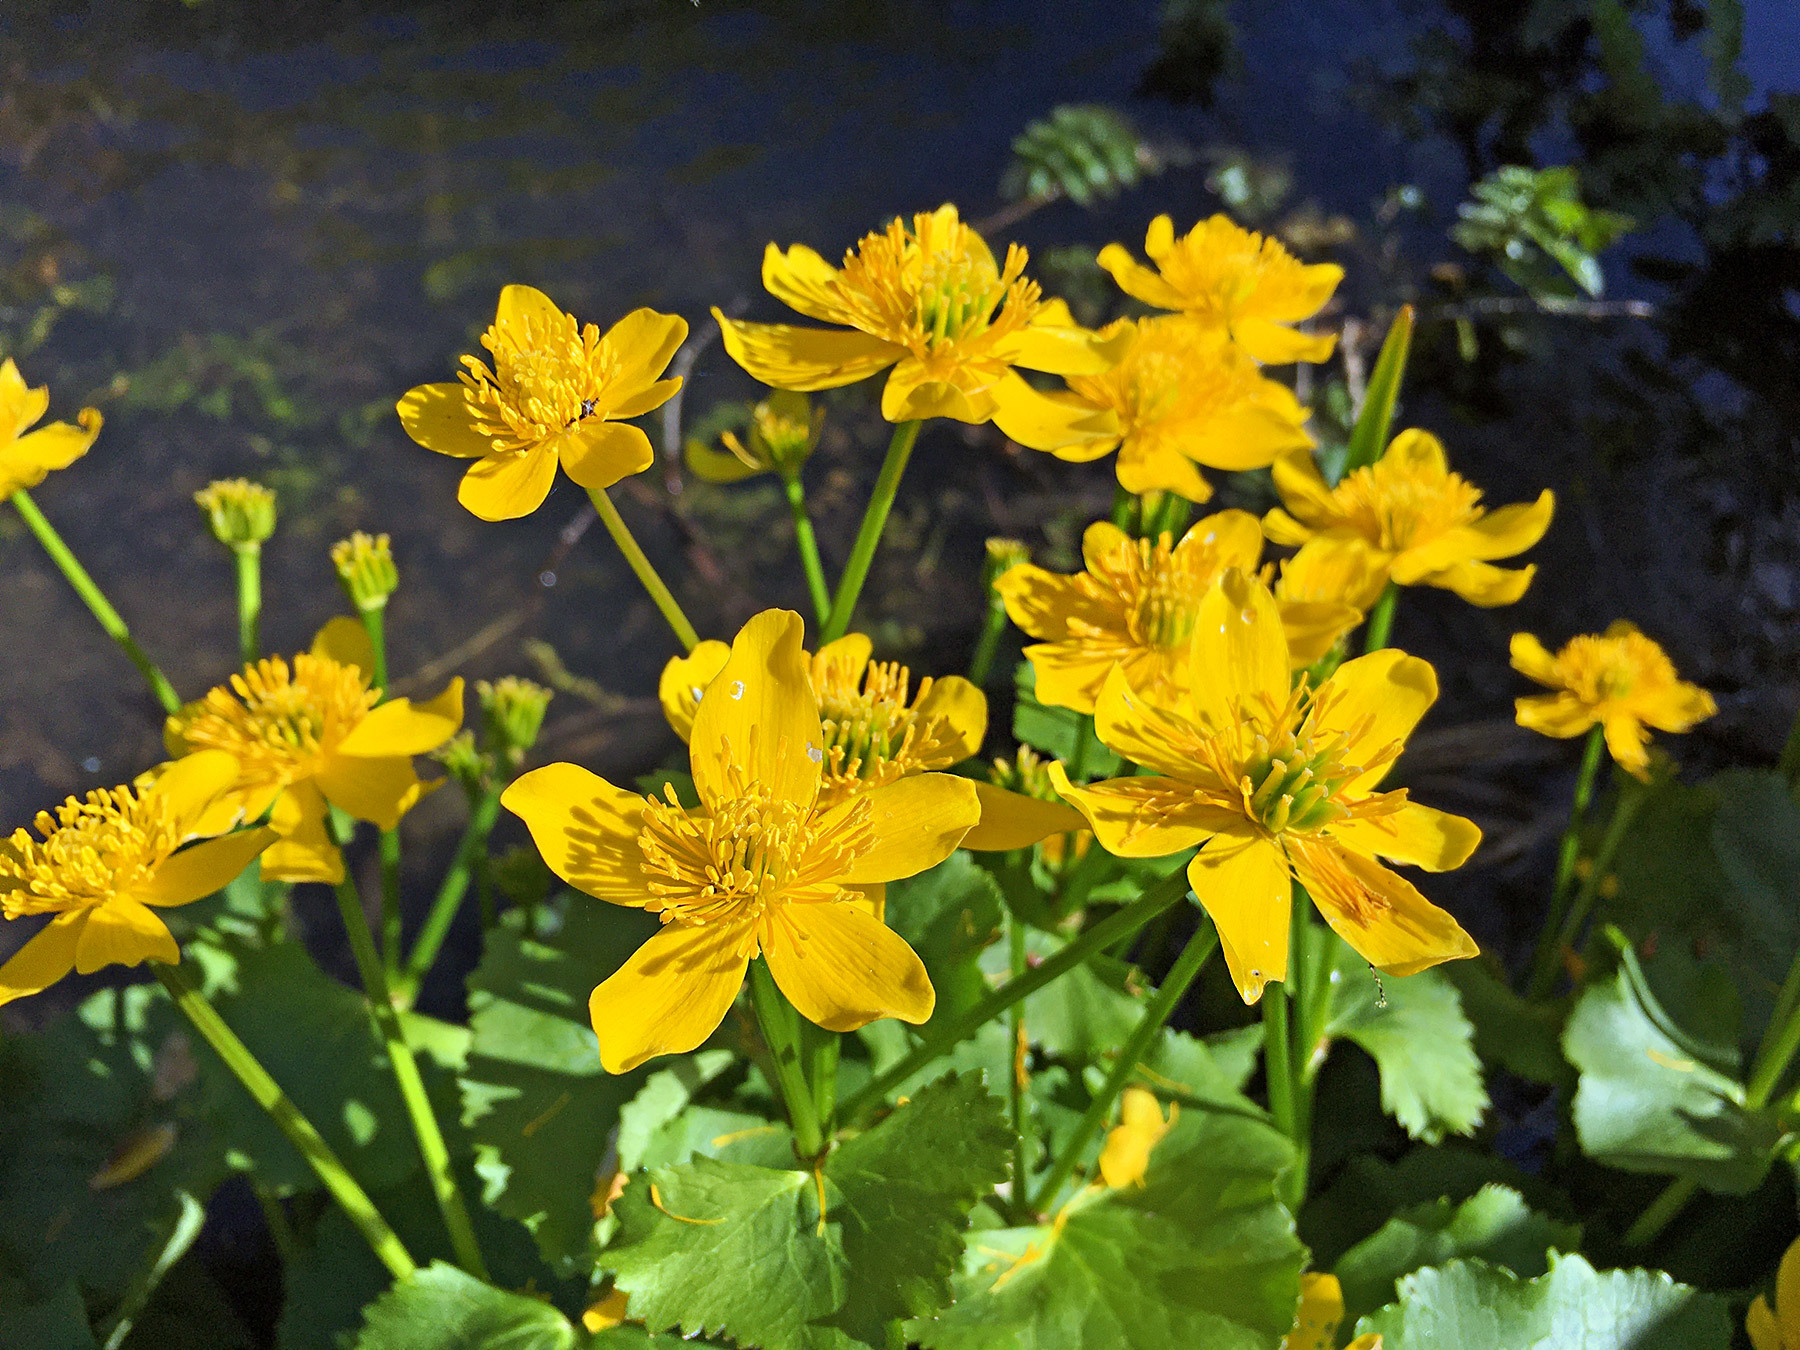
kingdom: Plantae
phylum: Tracheophyta
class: Magnoliopsida
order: Ranunculales
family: Ranunculaceae
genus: Caltha
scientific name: Caltha palustris
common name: Marsh marigold
